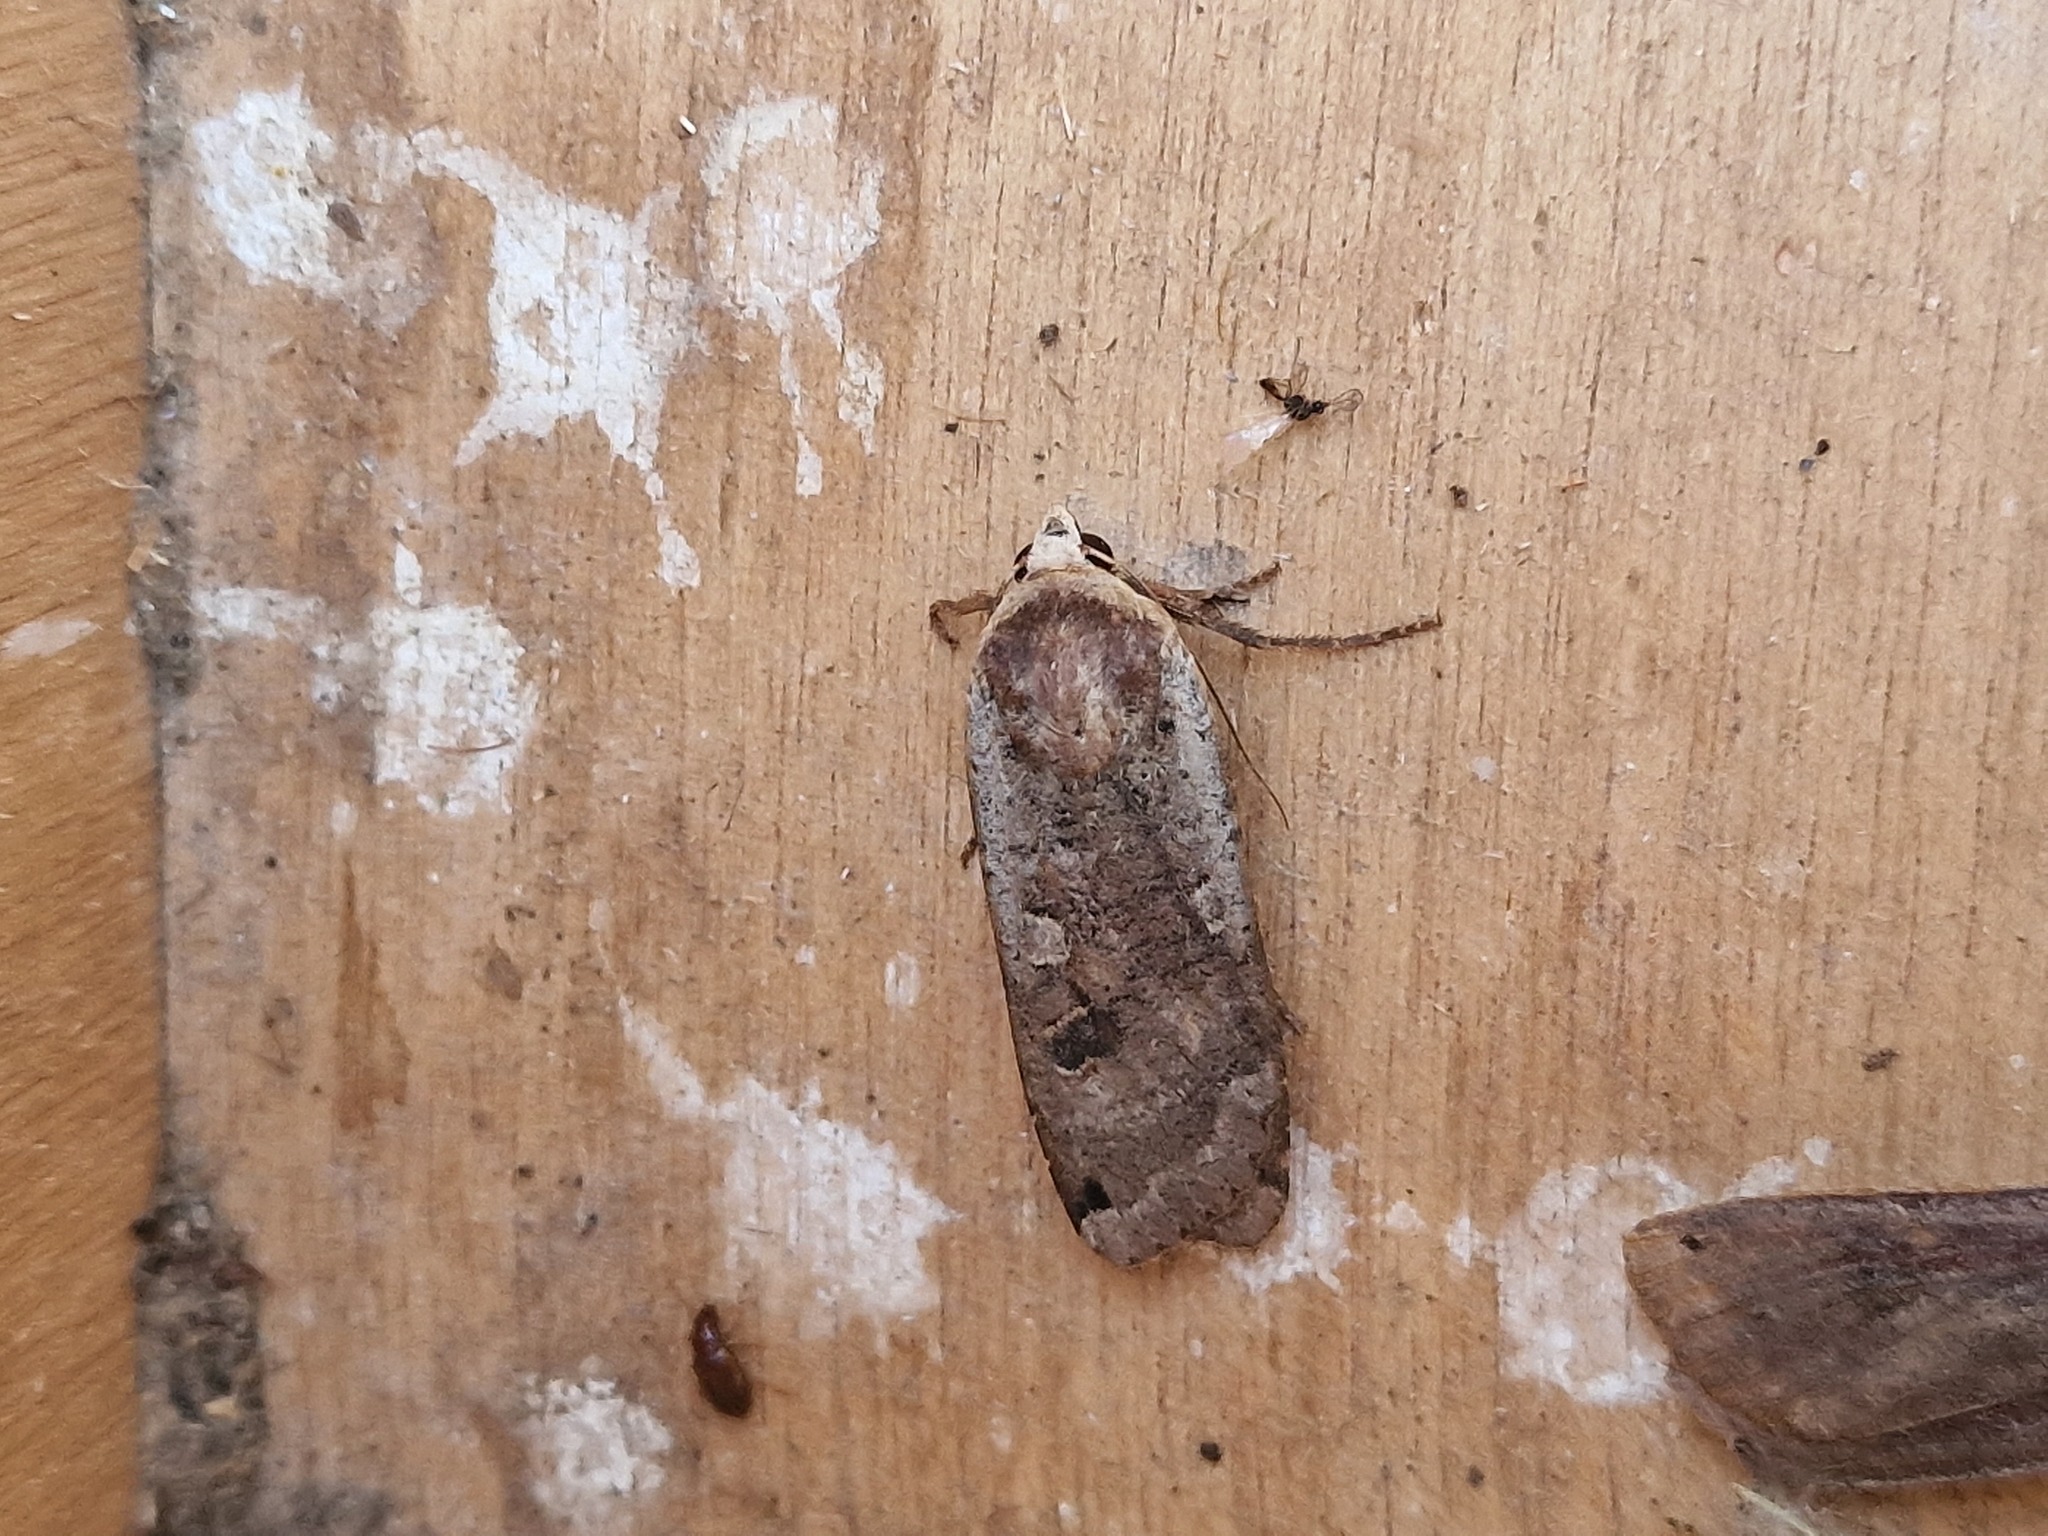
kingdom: Animalia
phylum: Arthropoda
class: Insecta
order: Lepidoptera
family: Noctuidae
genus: Noctua
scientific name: Noctua pronuba
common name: Large yellow underwing
